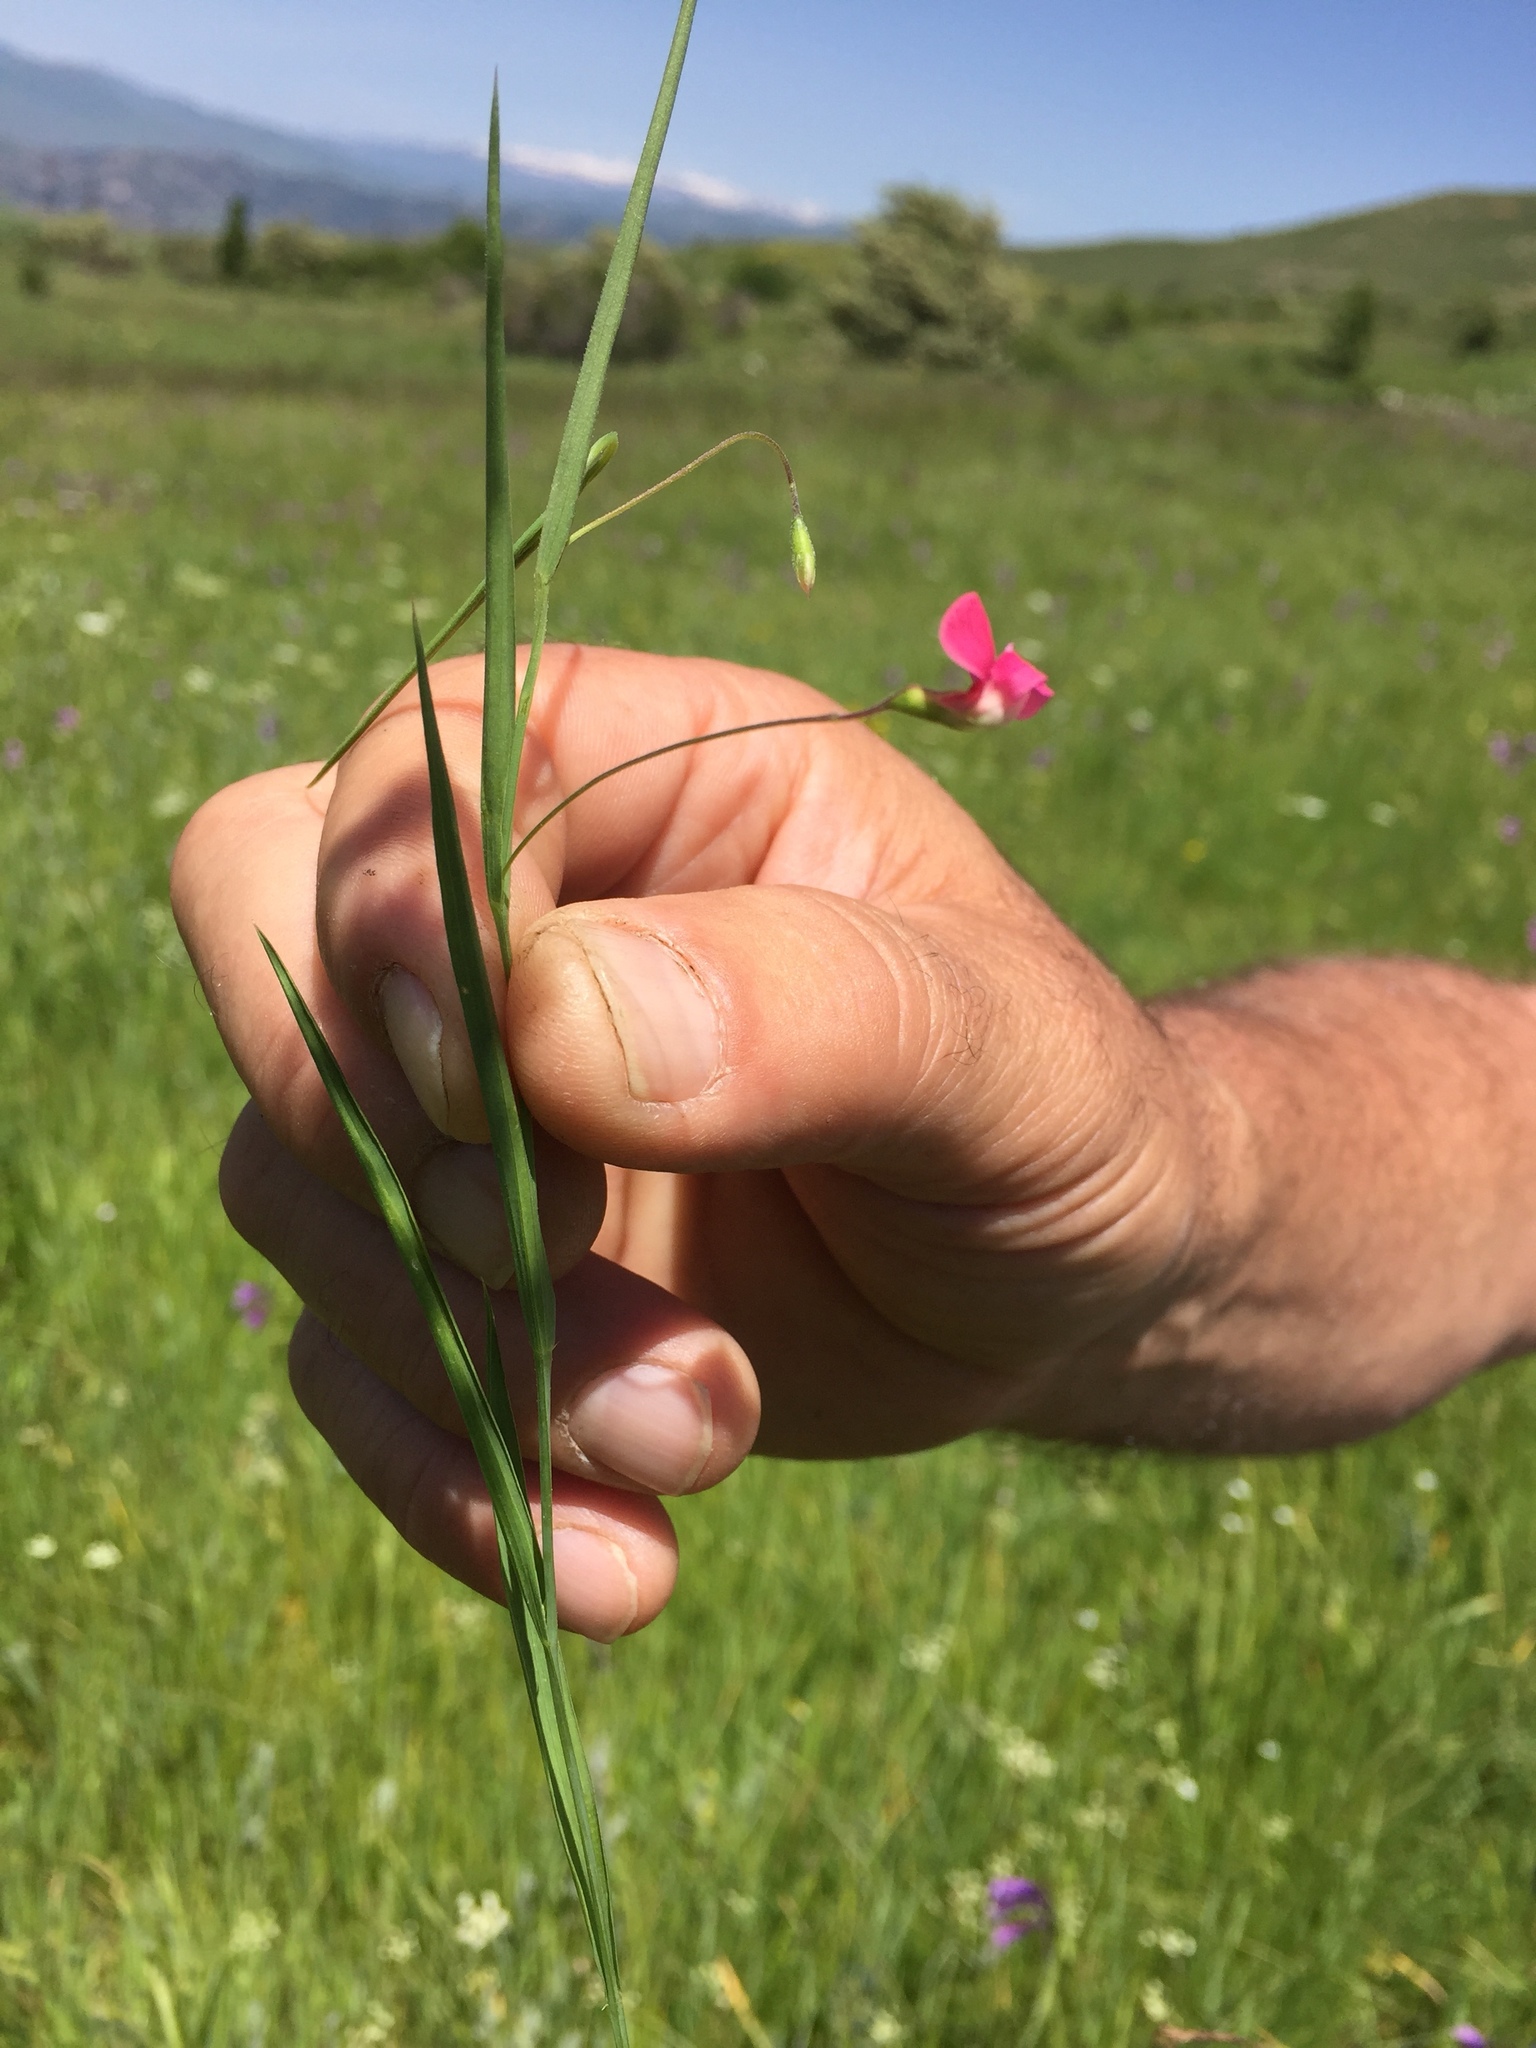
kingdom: Plantae
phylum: Tracheophyta
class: Magnoliopsida
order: Fabales
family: Fabaceae
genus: Lathyrus
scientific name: Lathyrus nissolia
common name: Grass vetchling
